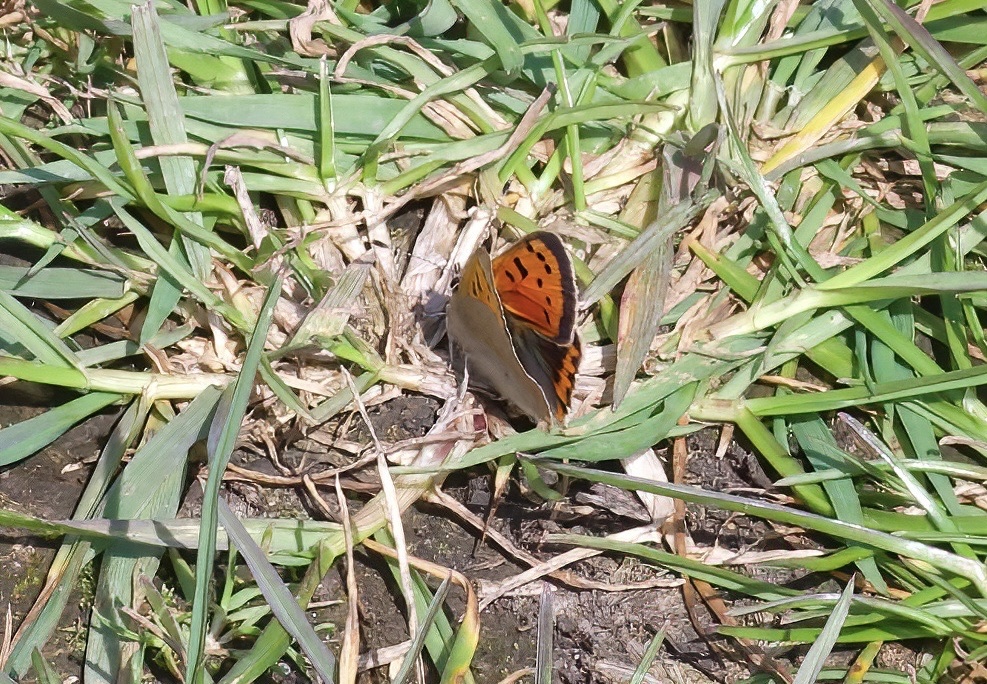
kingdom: Animalia
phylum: Arthropoda
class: Insecta
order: Lepidoptera
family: Lycaenidae
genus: Lycaena
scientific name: Lycaena phlaeas
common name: Small copper
